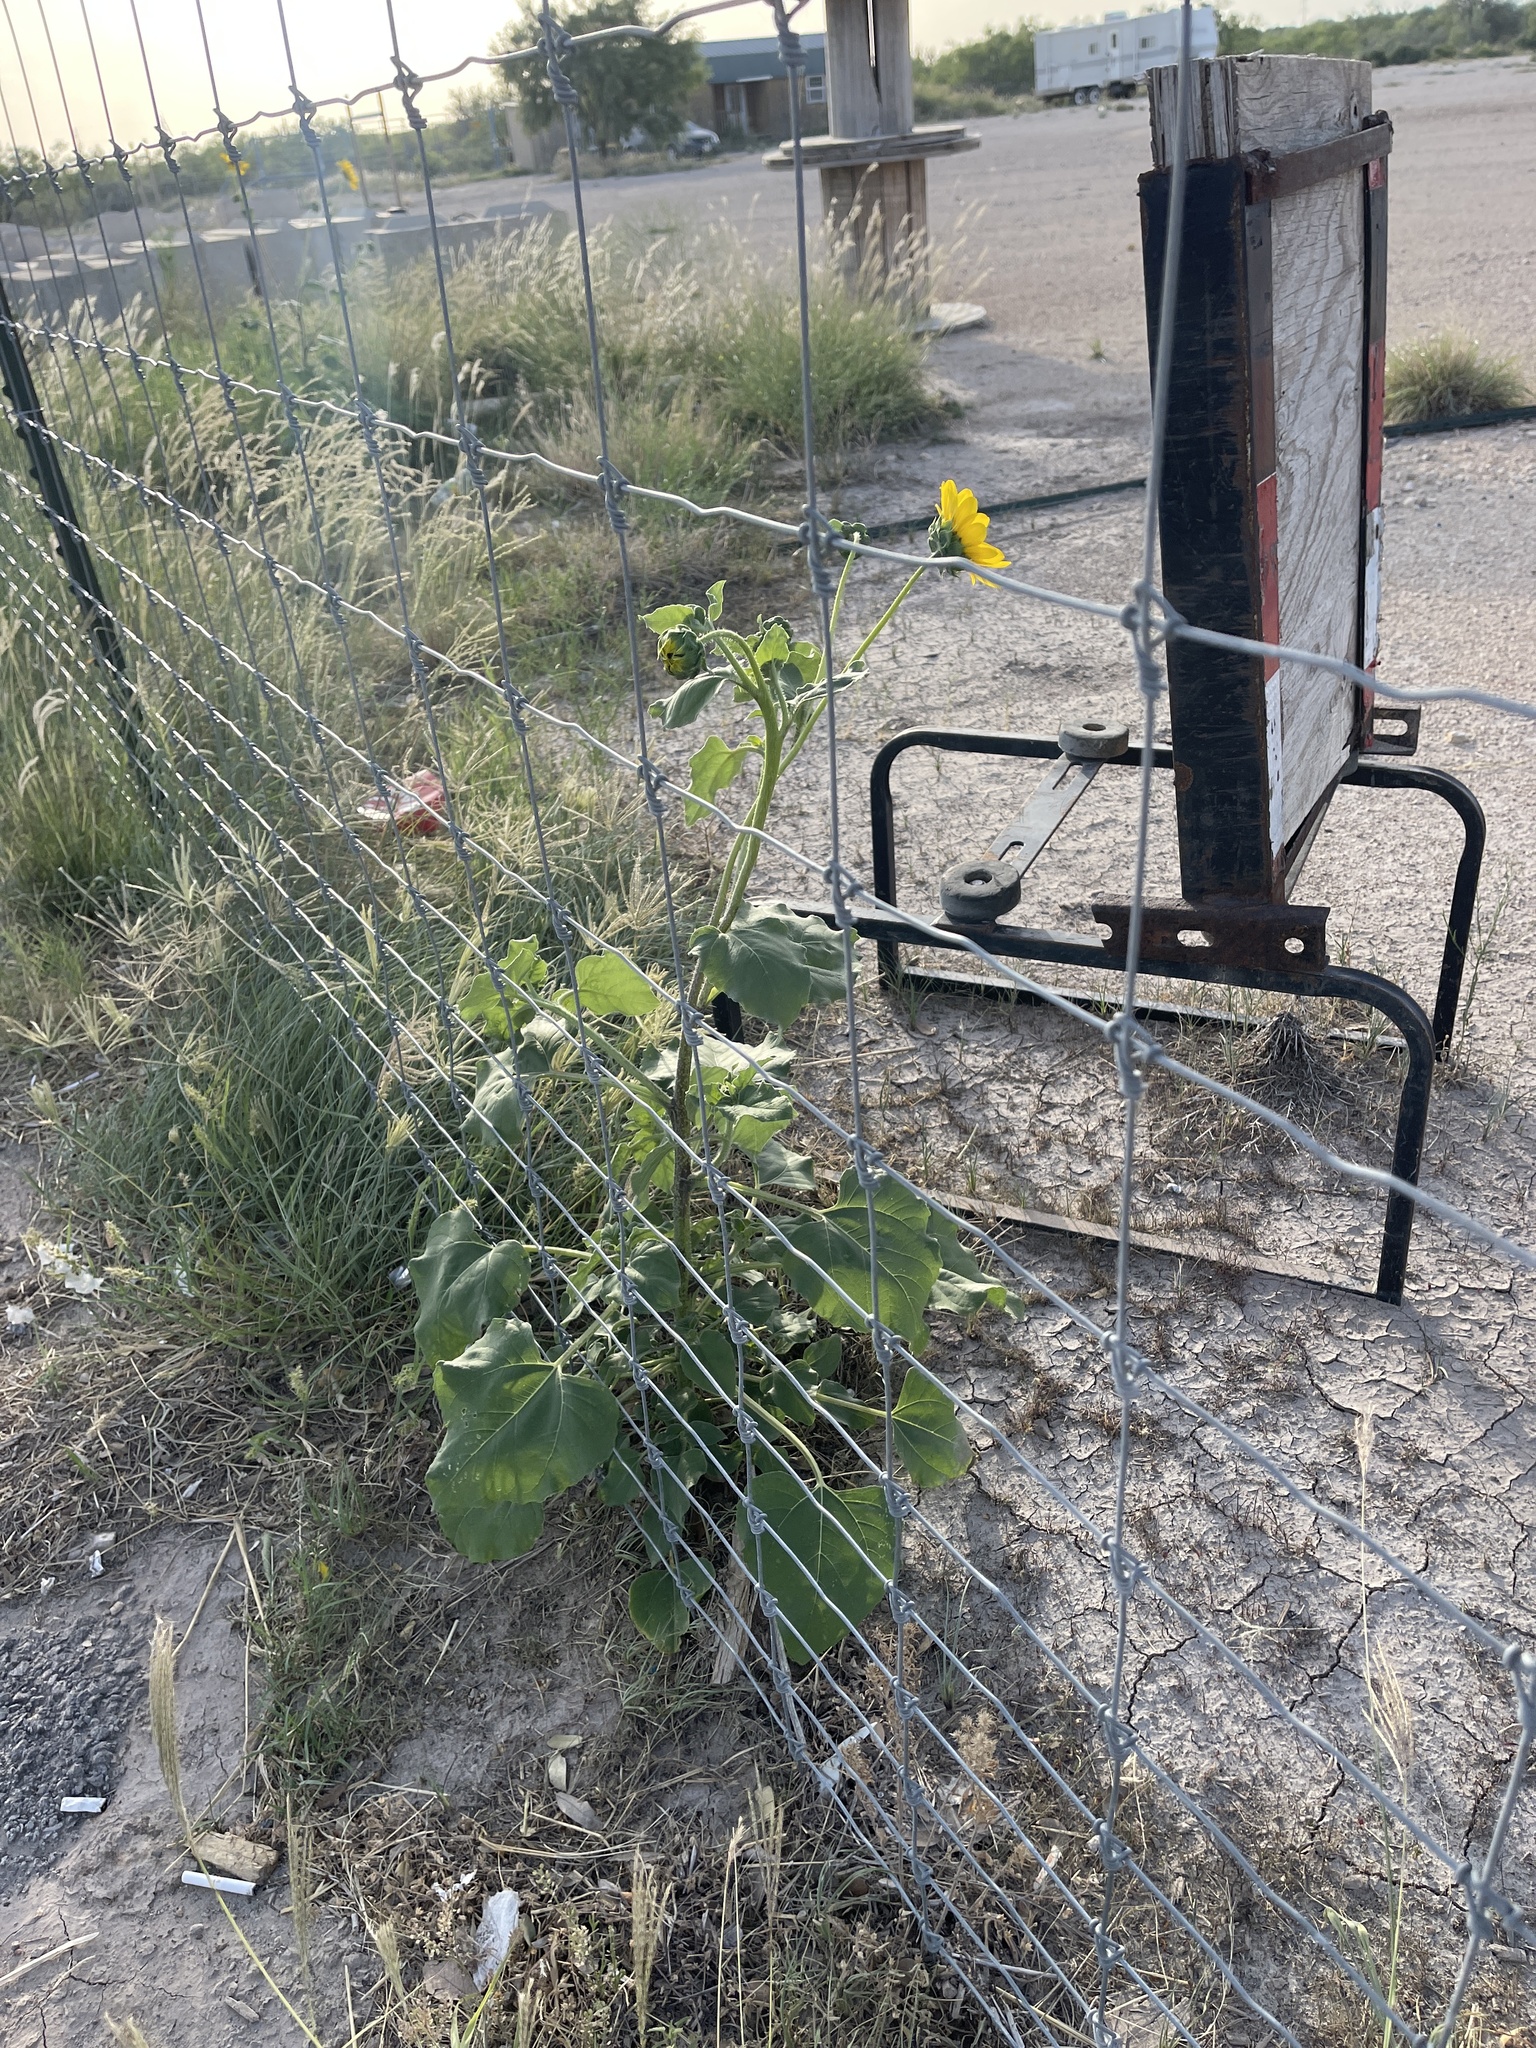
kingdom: Plantae
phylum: Tracheophyta
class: Magnoliopsida
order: Asterales
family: Asteraceae
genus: Helianthus
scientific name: Helianthus annuus
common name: Sunflower
